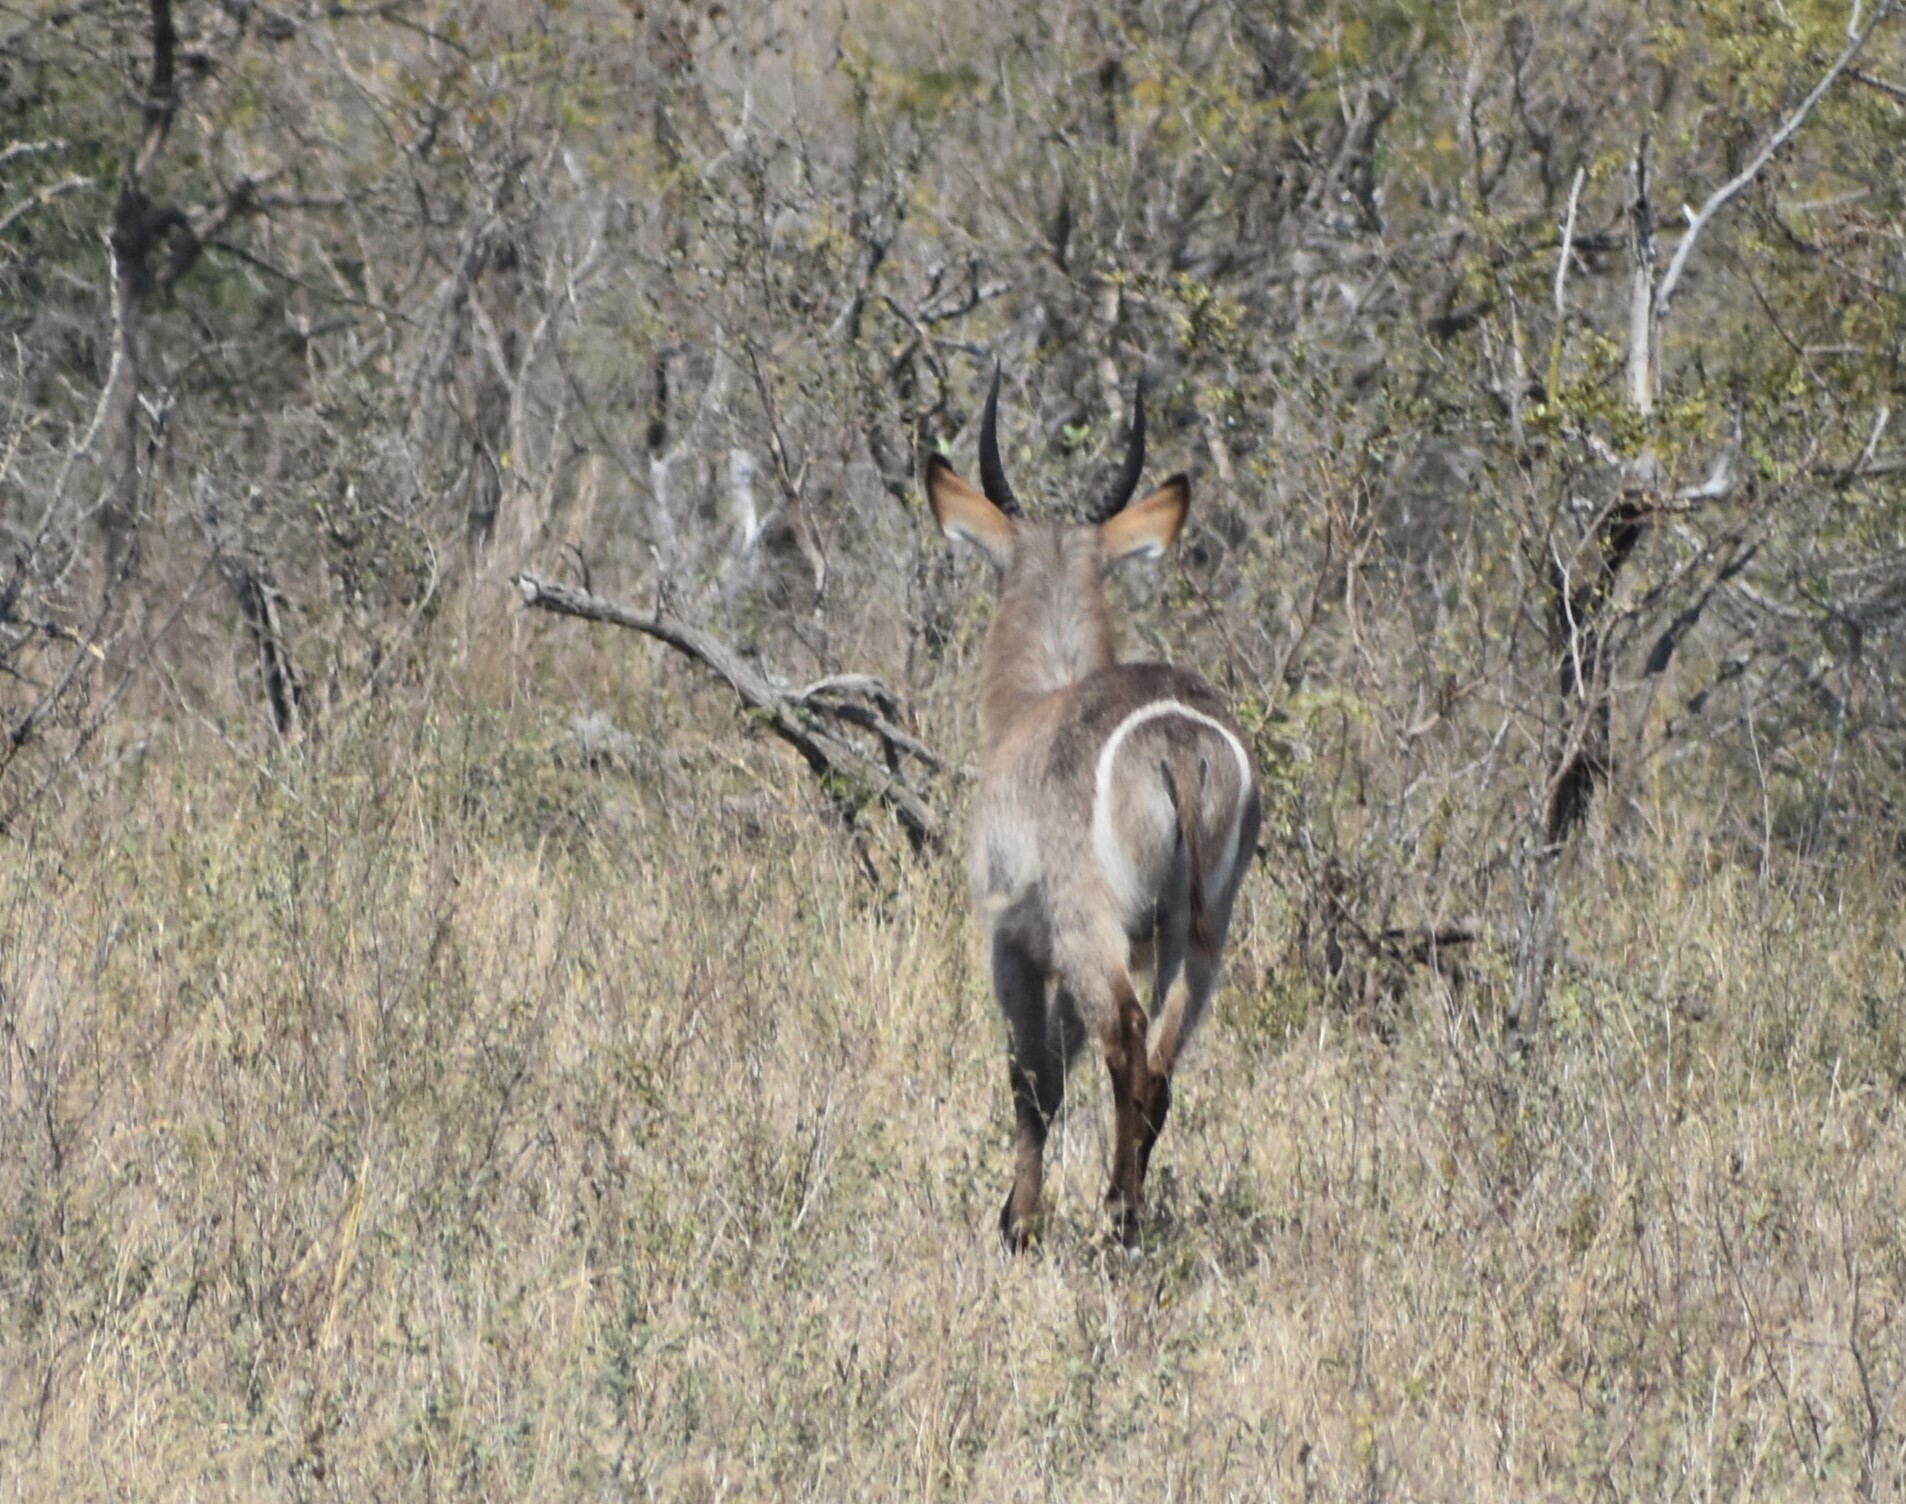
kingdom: Animalia
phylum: Chordata
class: Mammalia
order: Artiodactyla
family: Bovidae
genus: Kobus
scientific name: Kobus ellipsiprymnus
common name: Waterbuck
